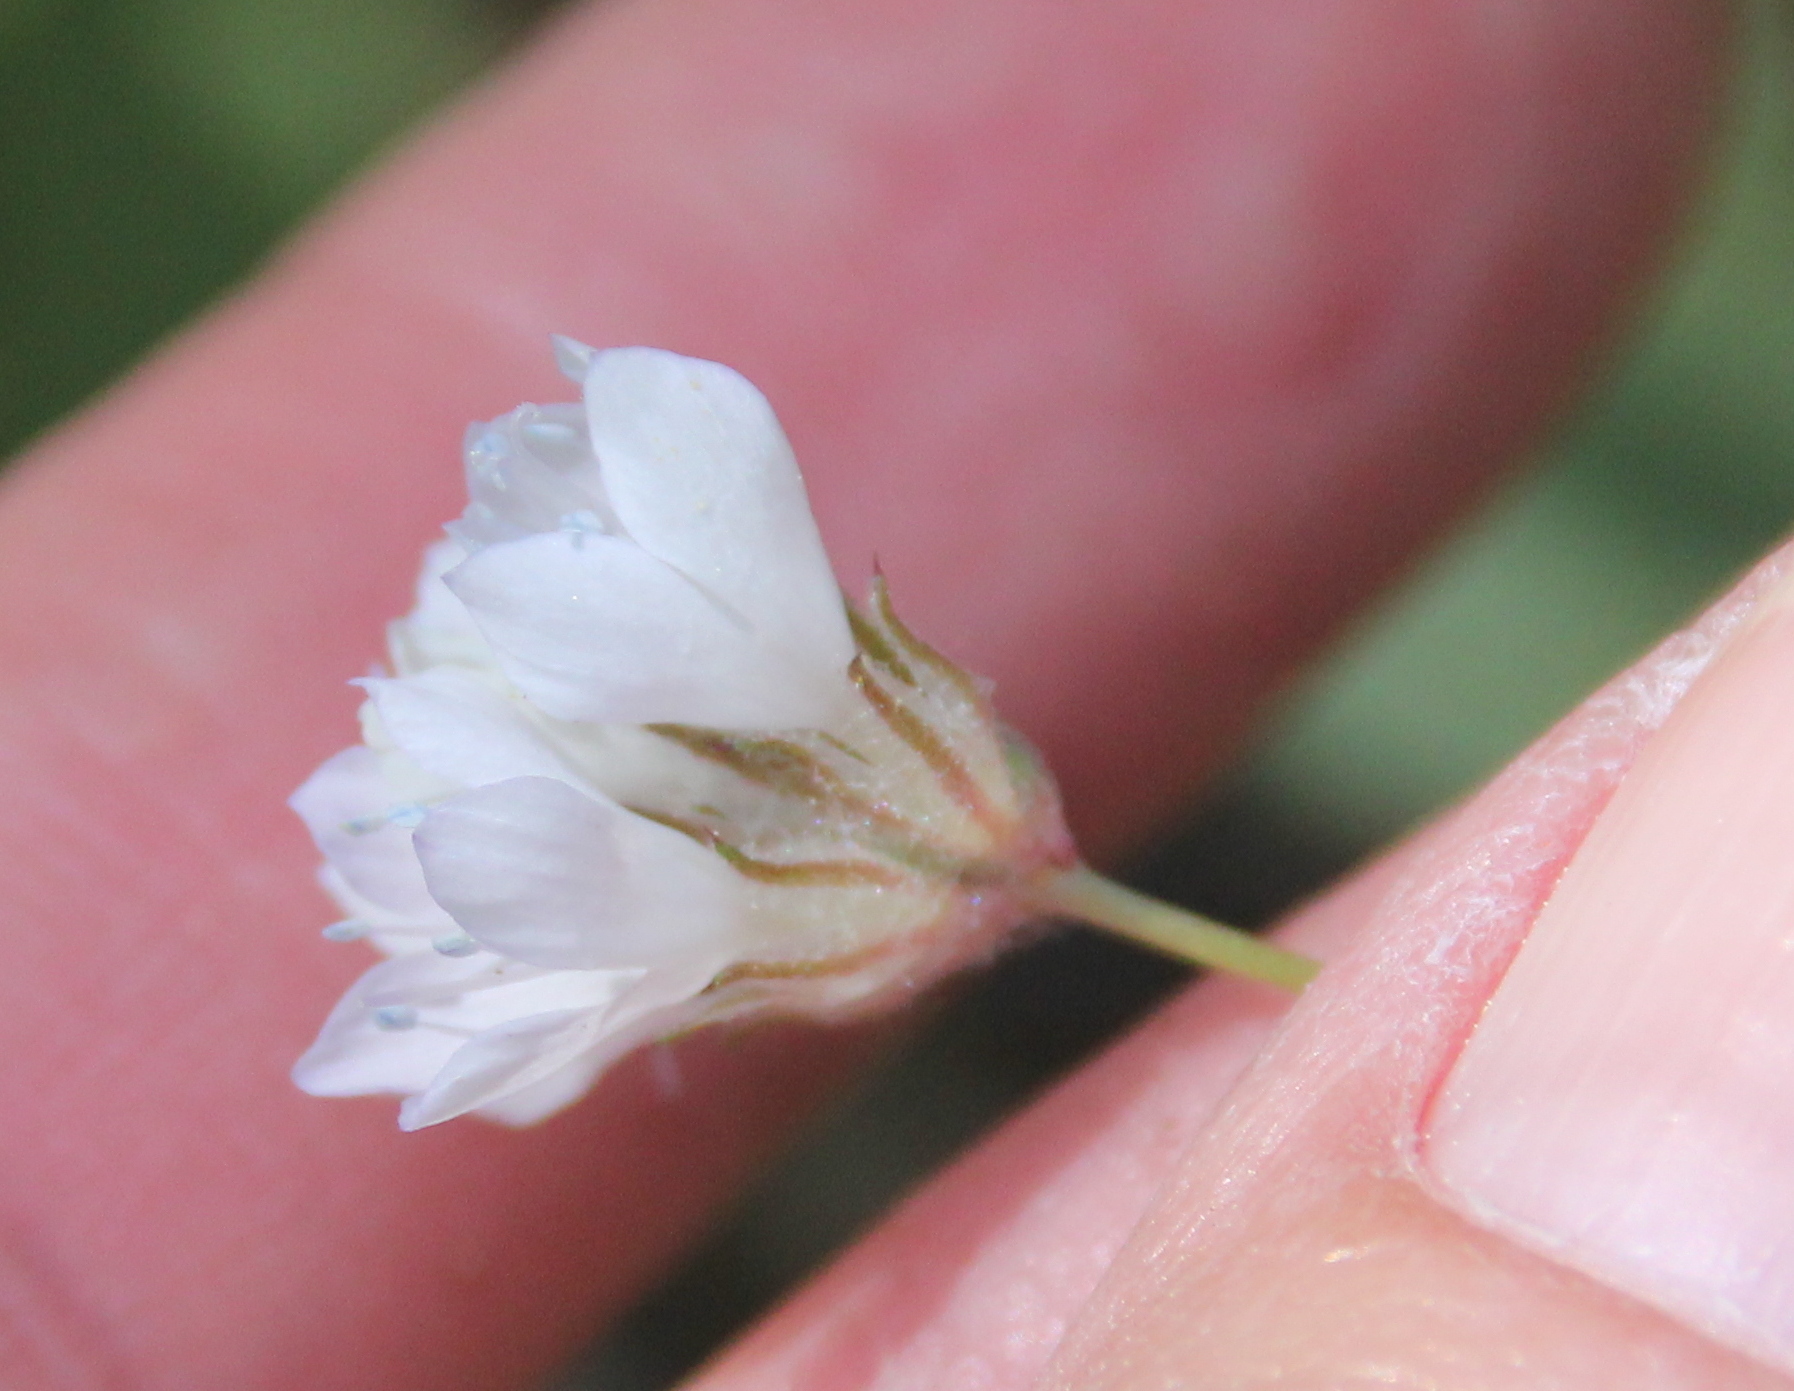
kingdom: Plantae
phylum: Tracheophyta
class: Magnoliopsida
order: Ericales
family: Polemoniaceae
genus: Gilia
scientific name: Gilia capitata
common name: Bluehead gilia
